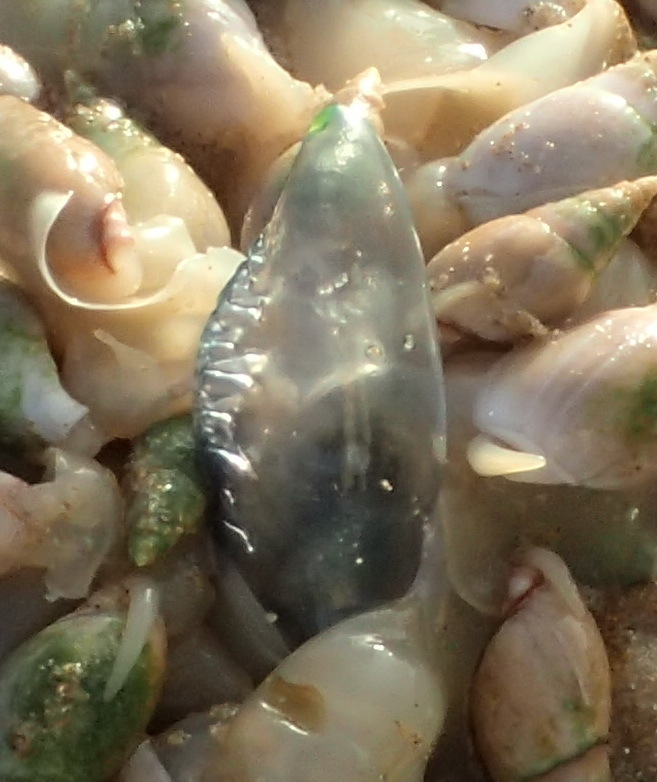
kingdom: Animalia
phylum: Cnidaria
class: Hydrozoa
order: Siphonophorae
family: Physaliidae
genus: Physalia
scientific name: Physalia physalis
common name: Portuguese man-of-war
